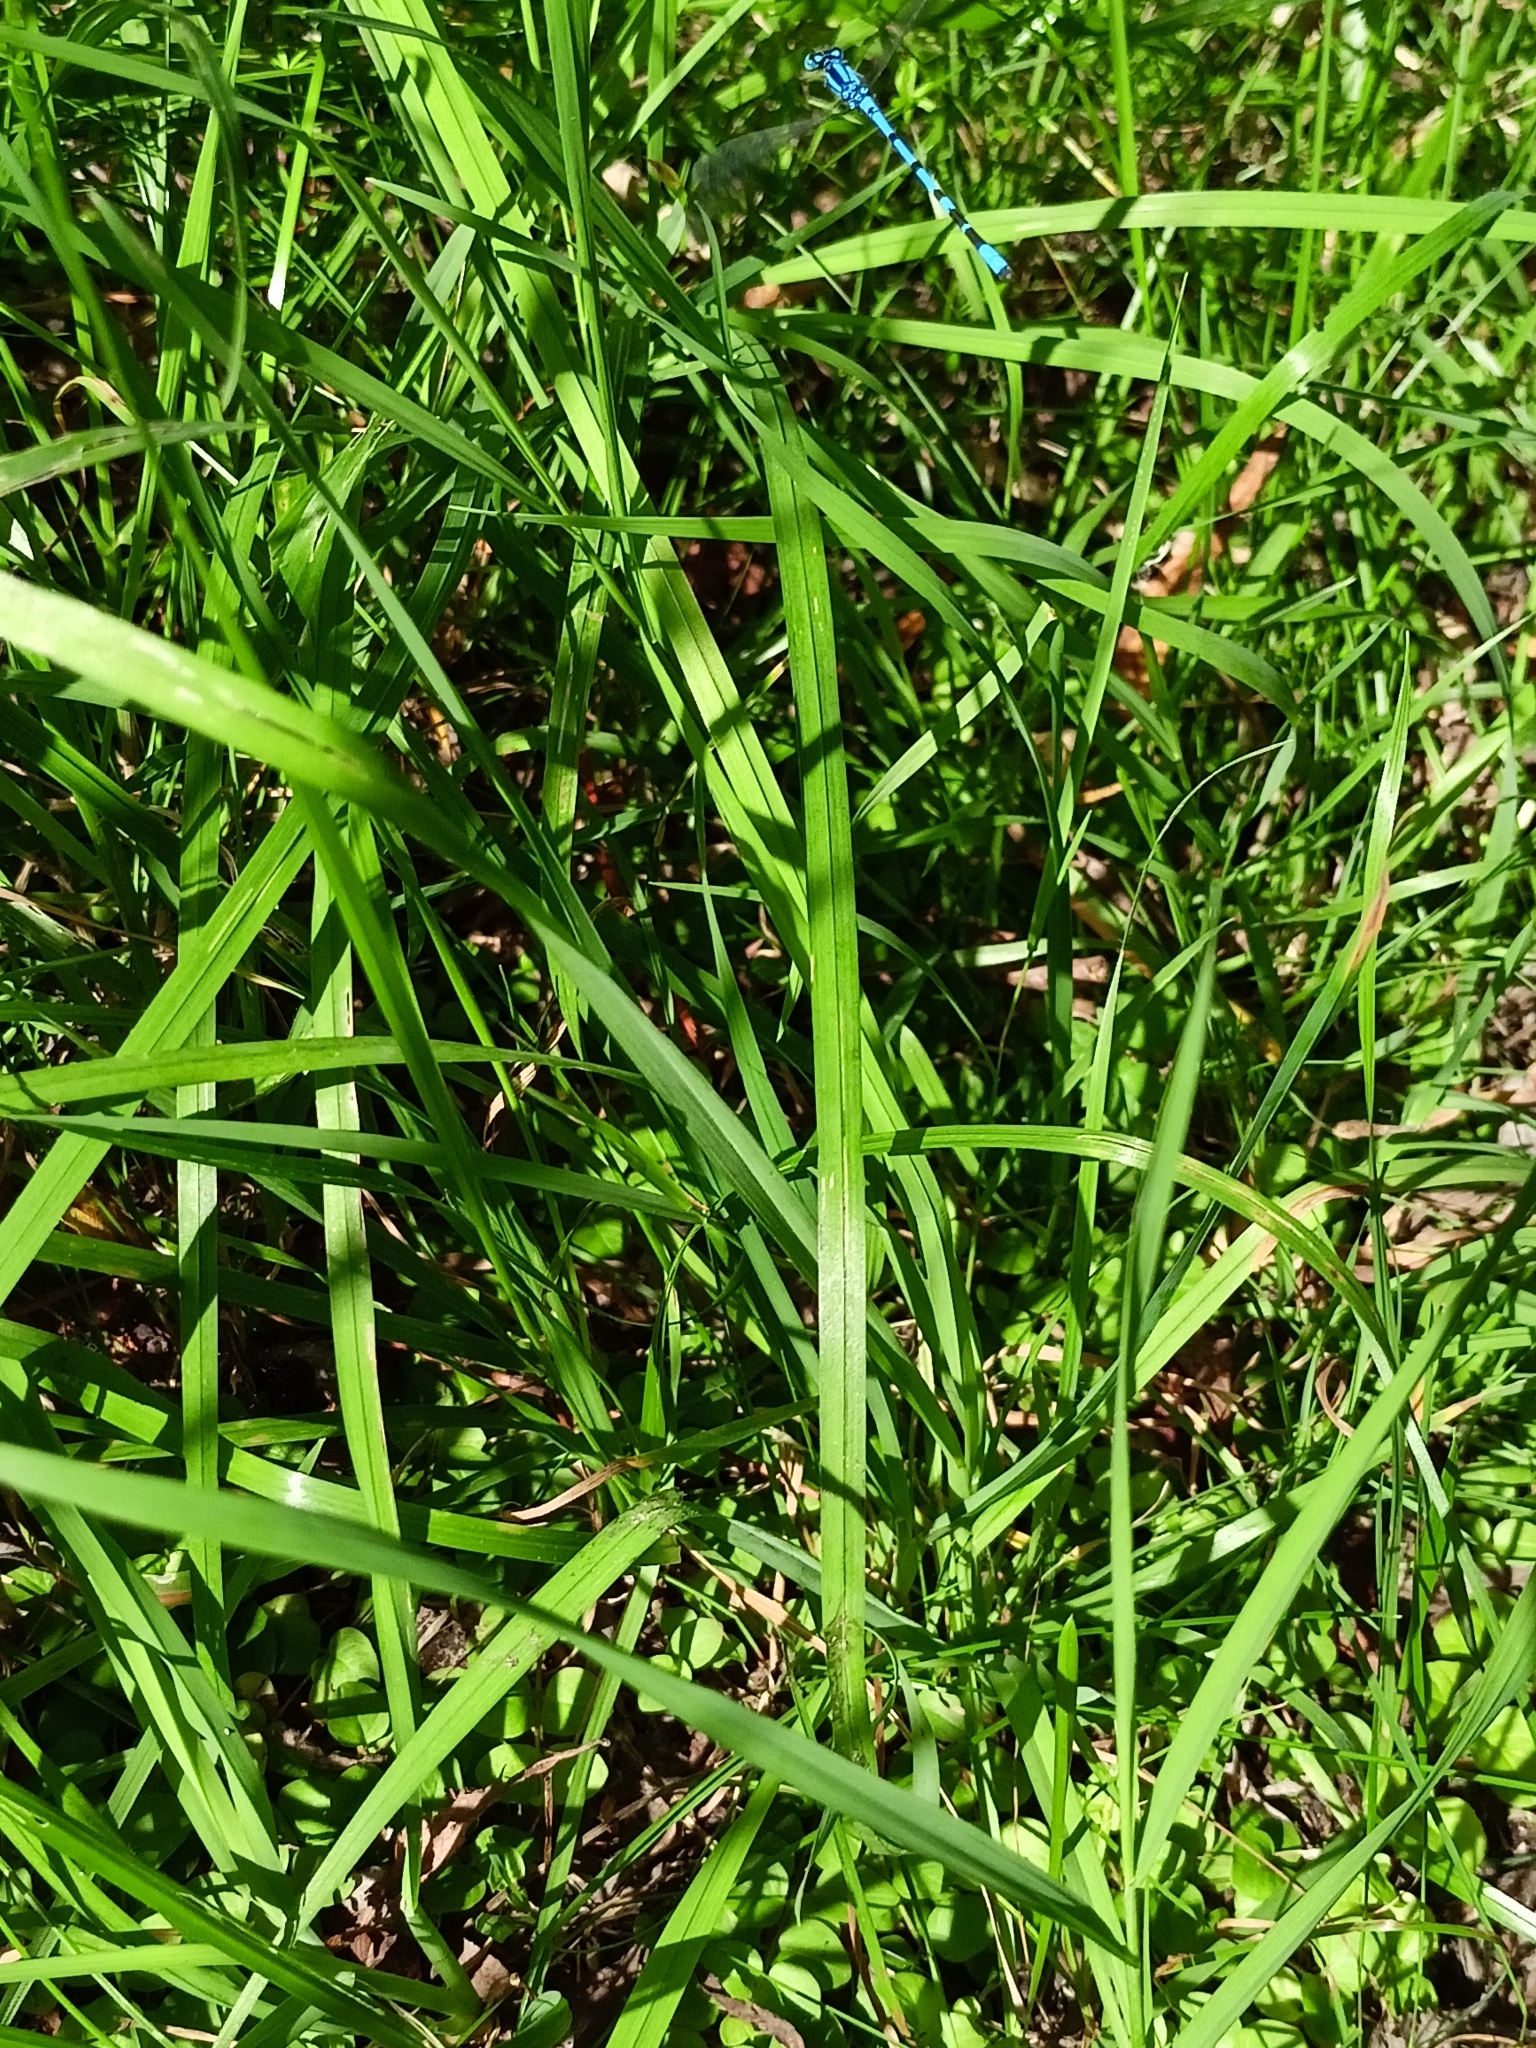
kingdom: Animalia
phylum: Arthropoda
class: Insecta
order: Odonata
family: Coenagrionidae
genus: Enallagma
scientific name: Enallagma cyathigerum
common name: Common blue damselfly
